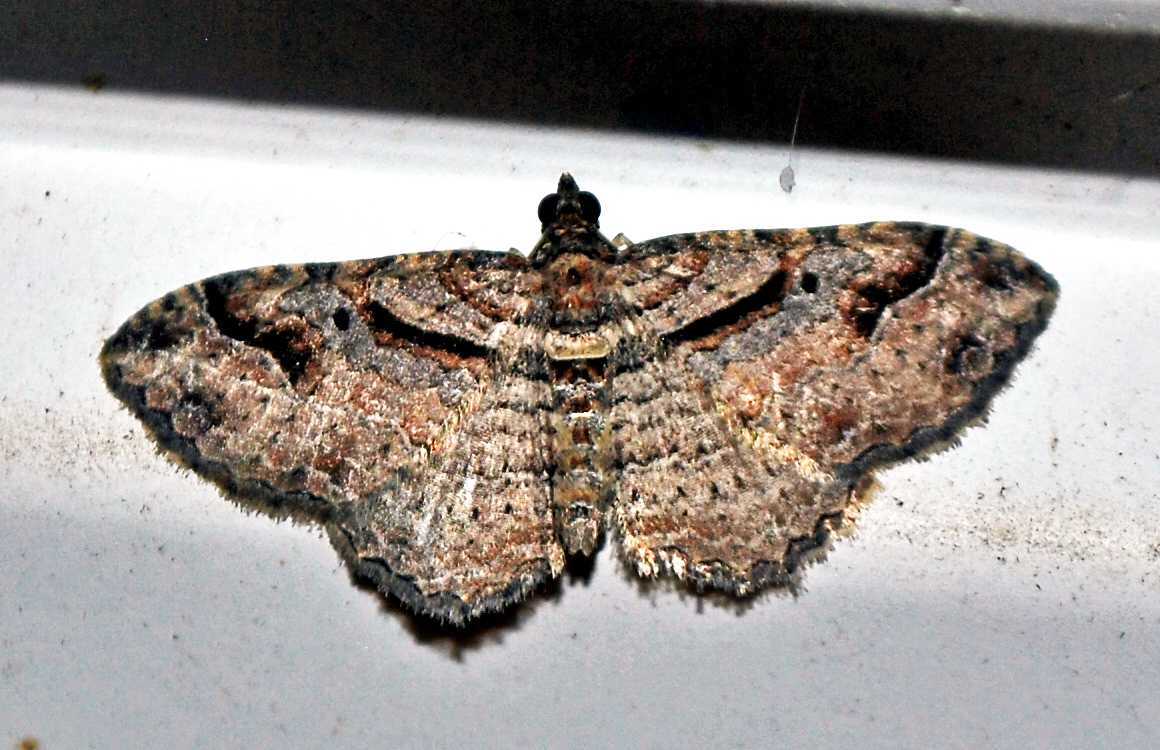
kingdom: Animalia
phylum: Arthropoda
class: Insecta
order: Lepidoptera
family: Geometridae
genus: Costaconvexa
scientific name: Costaconvexa centrostrigaria
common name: Bent-line carpet
